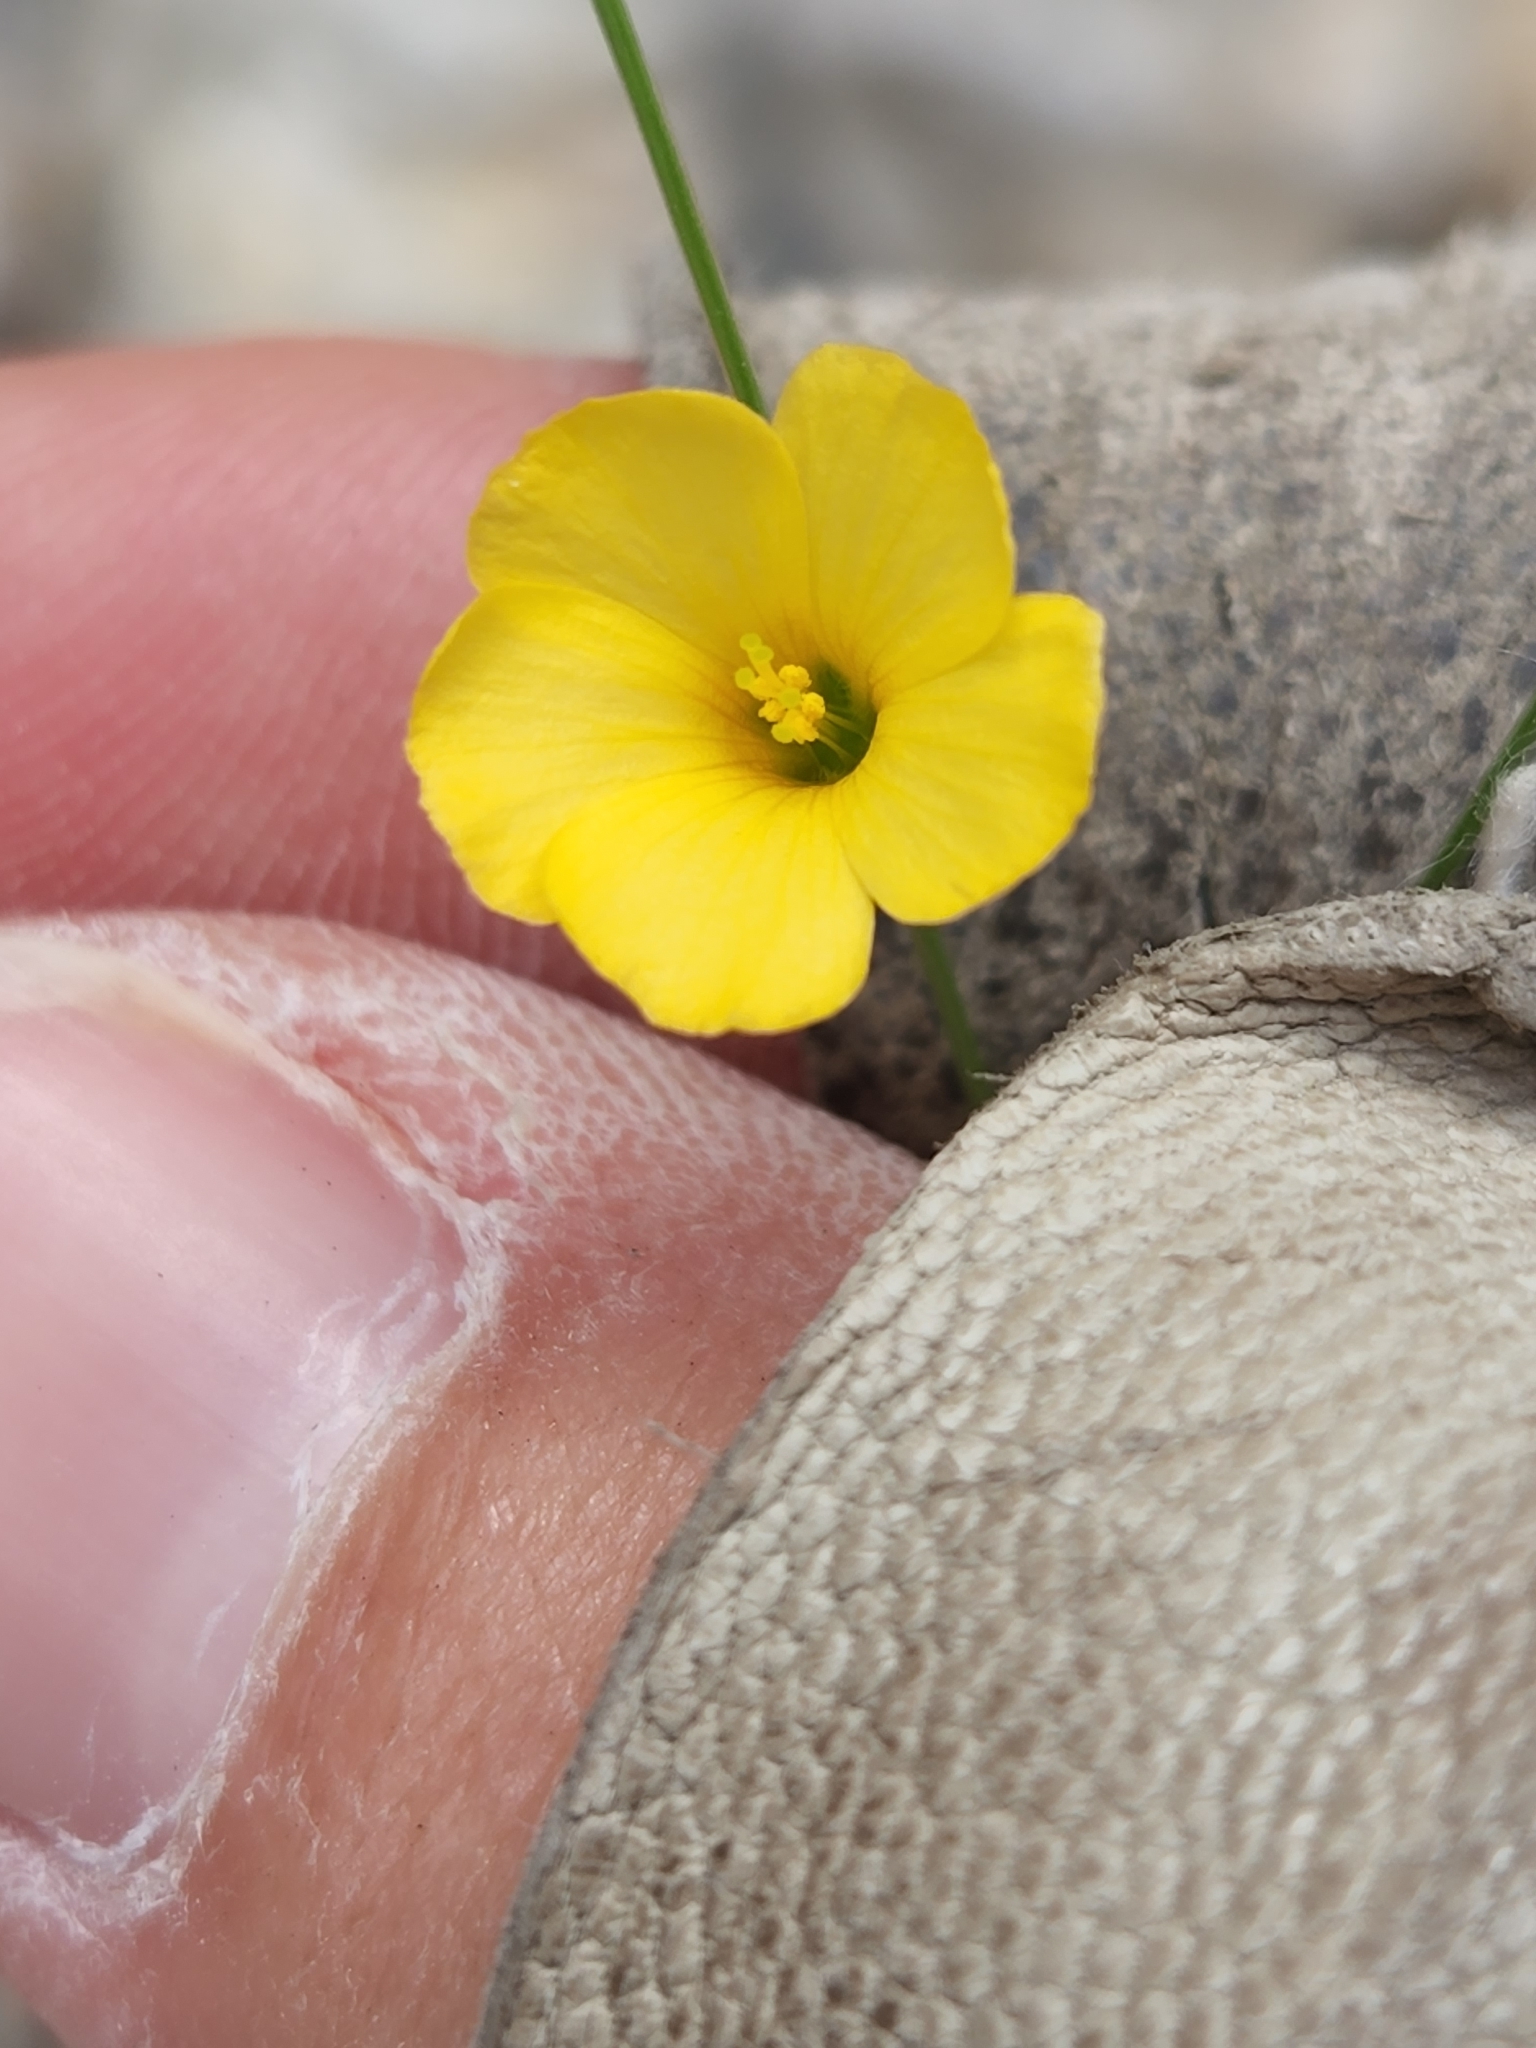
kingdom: Plantae
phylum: Tracheophyta
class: Magnoliopsida
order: Malpighiales
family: Linaceae
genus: Linum
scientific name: Linum rupestre
